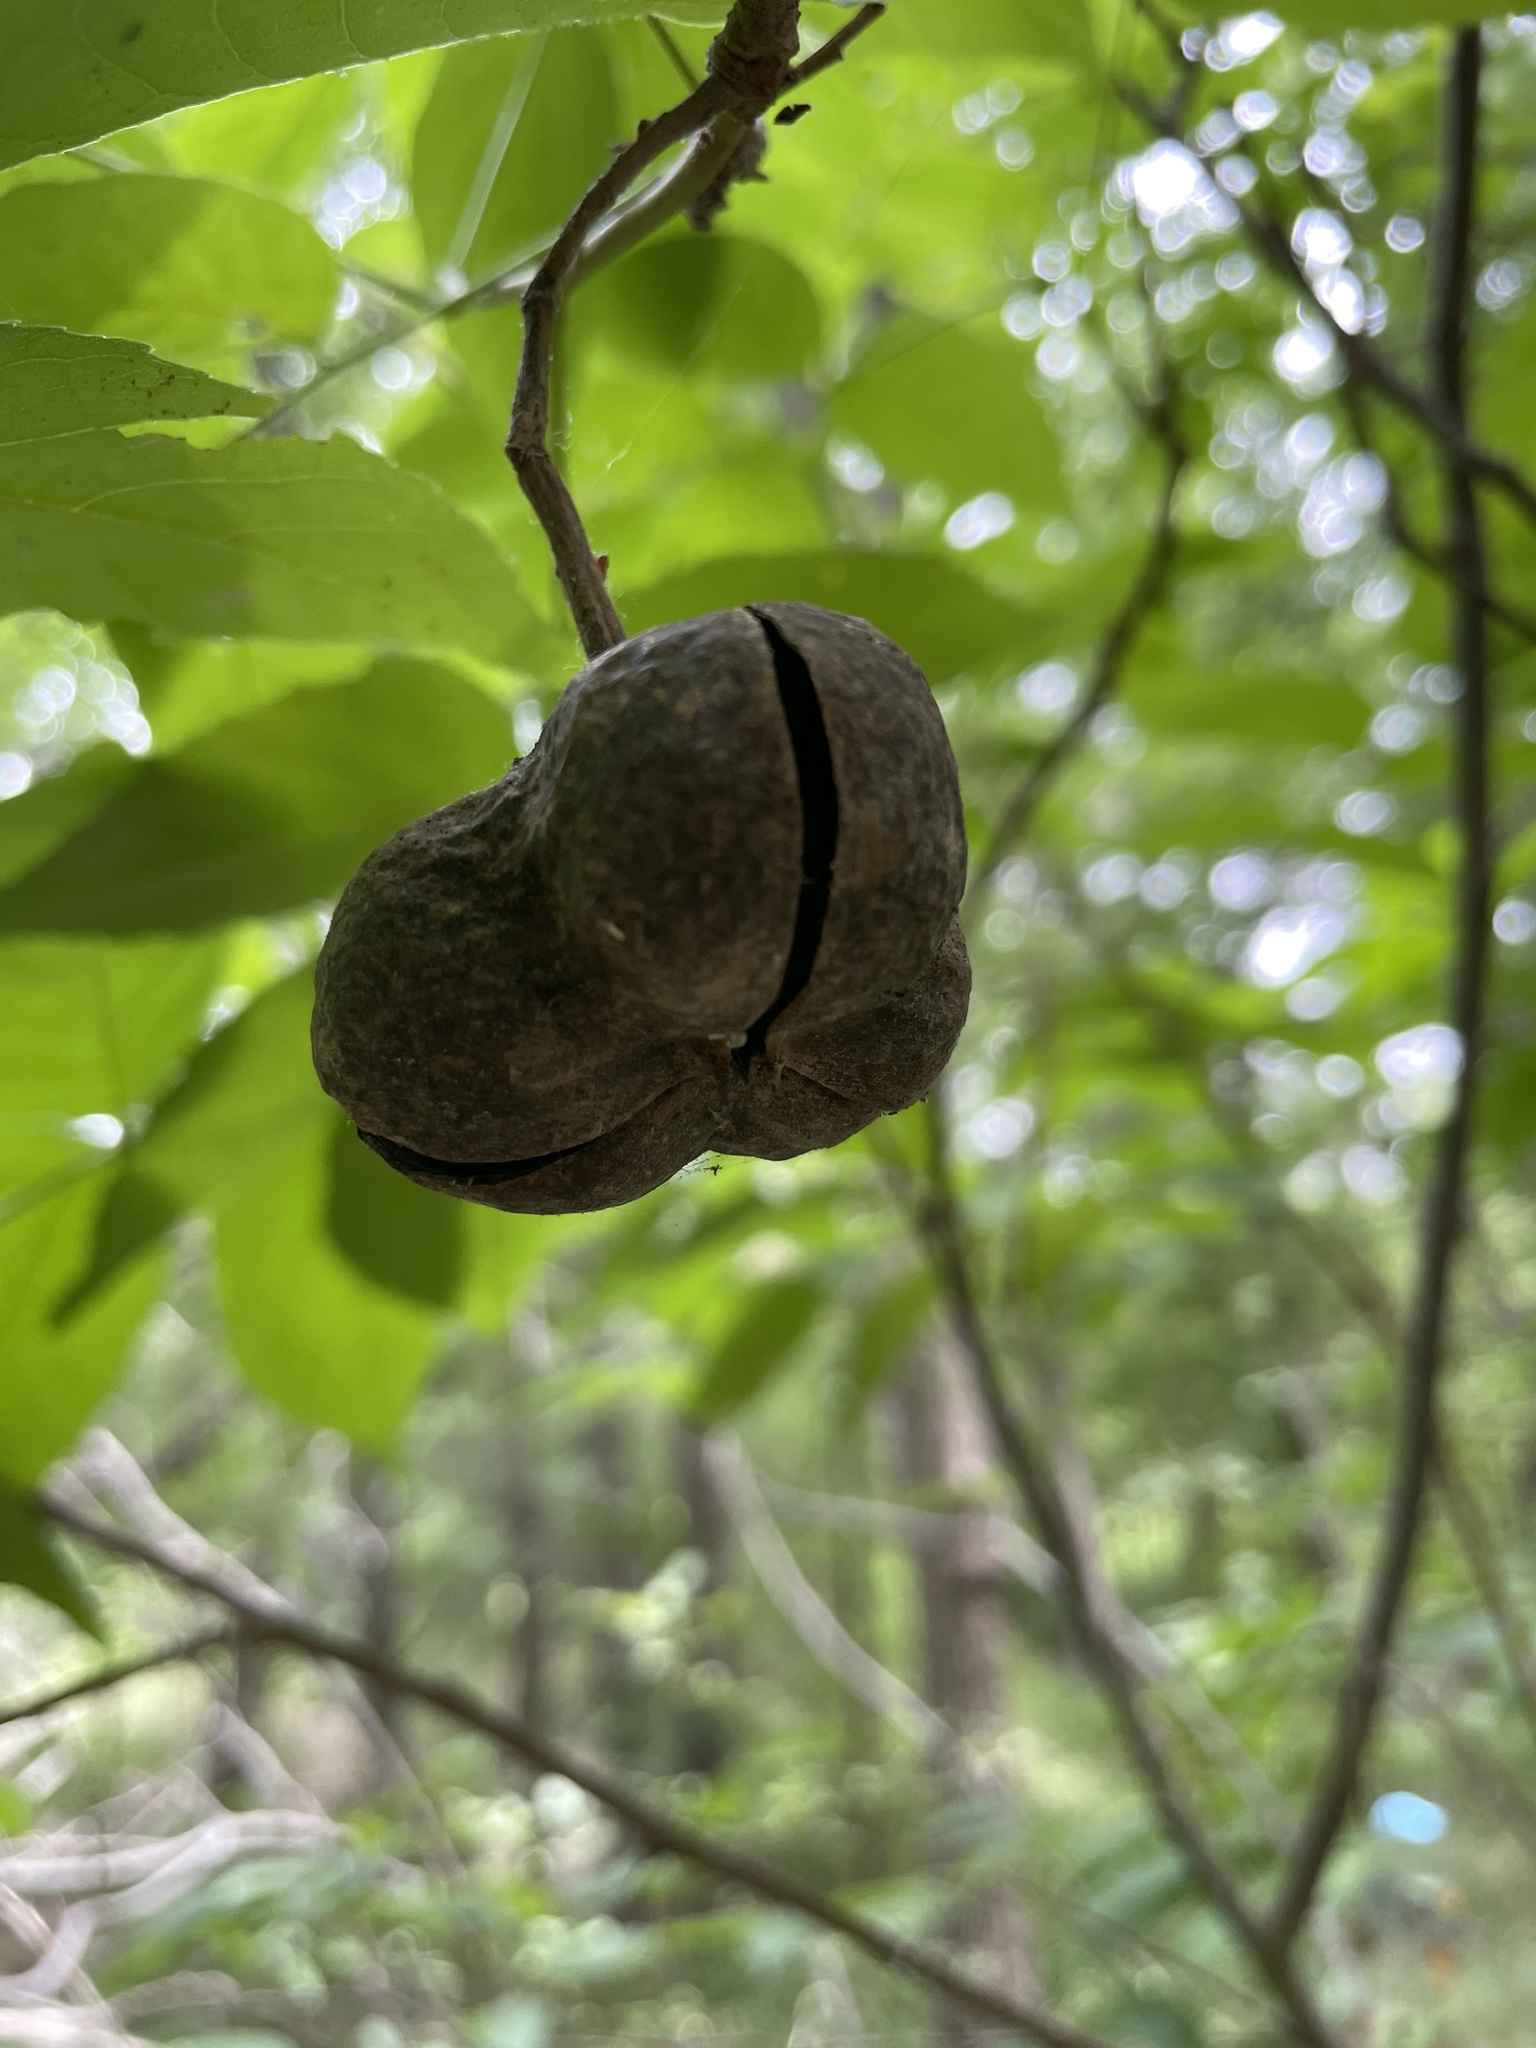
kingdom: Plantae
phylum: Tracheophyta
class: Magnoliopsida
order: Sapindales
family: Sapindaceae
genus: Ungnadia
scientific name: Ungnadia speciosa
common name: Texas-buckeye
